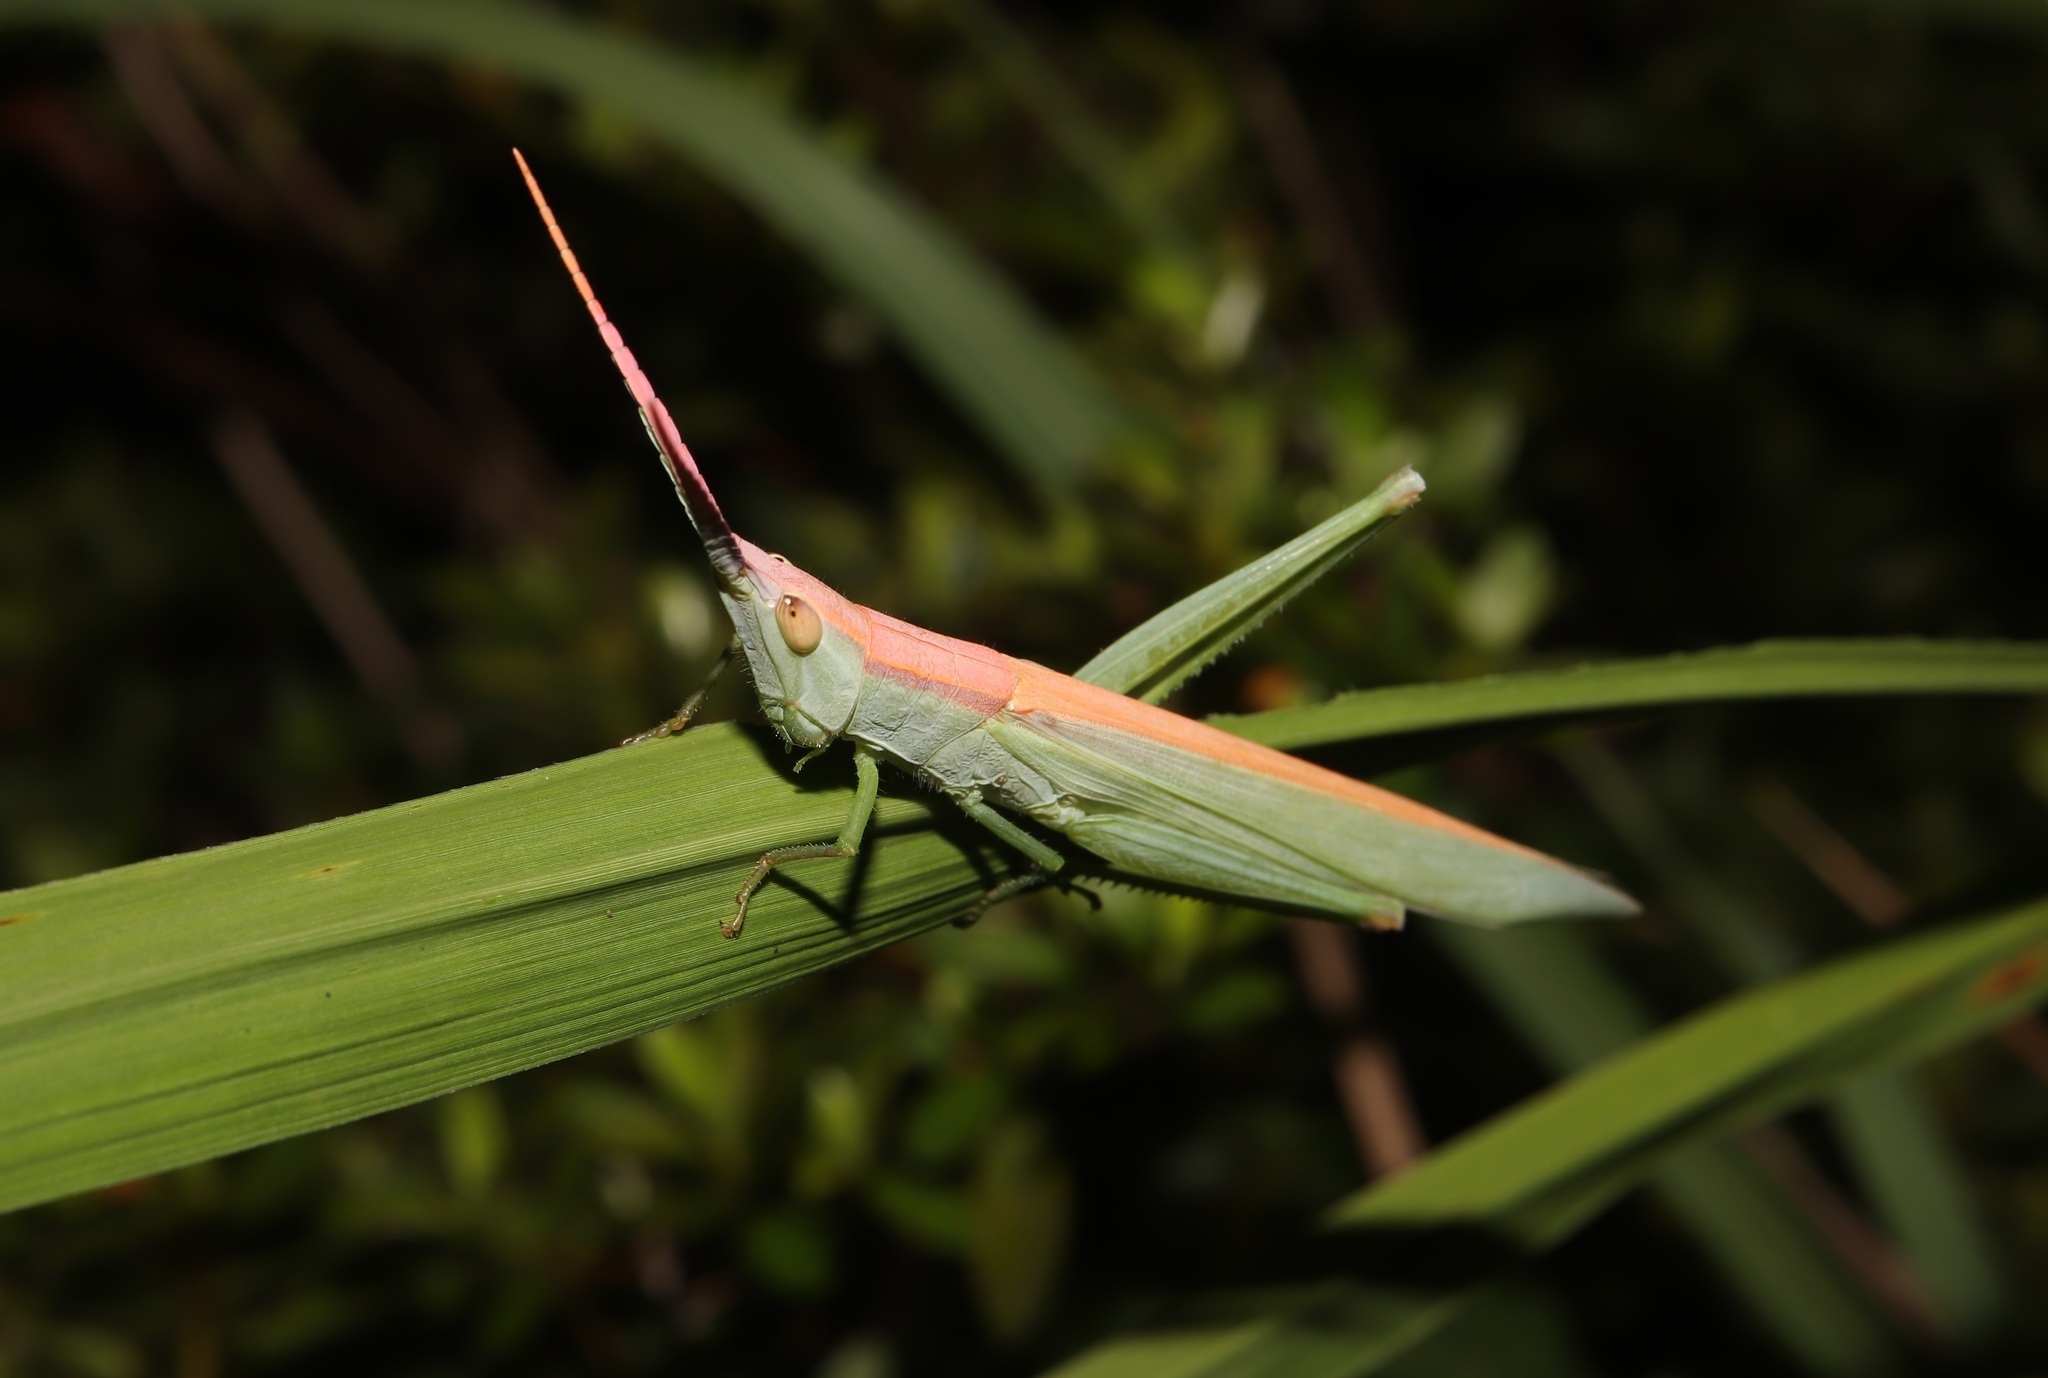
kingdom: Animalia
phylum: Arthropoda
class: Insecta
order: Orthoptera
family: Acrididae
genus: Gonista
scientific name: Gonista bicolor
